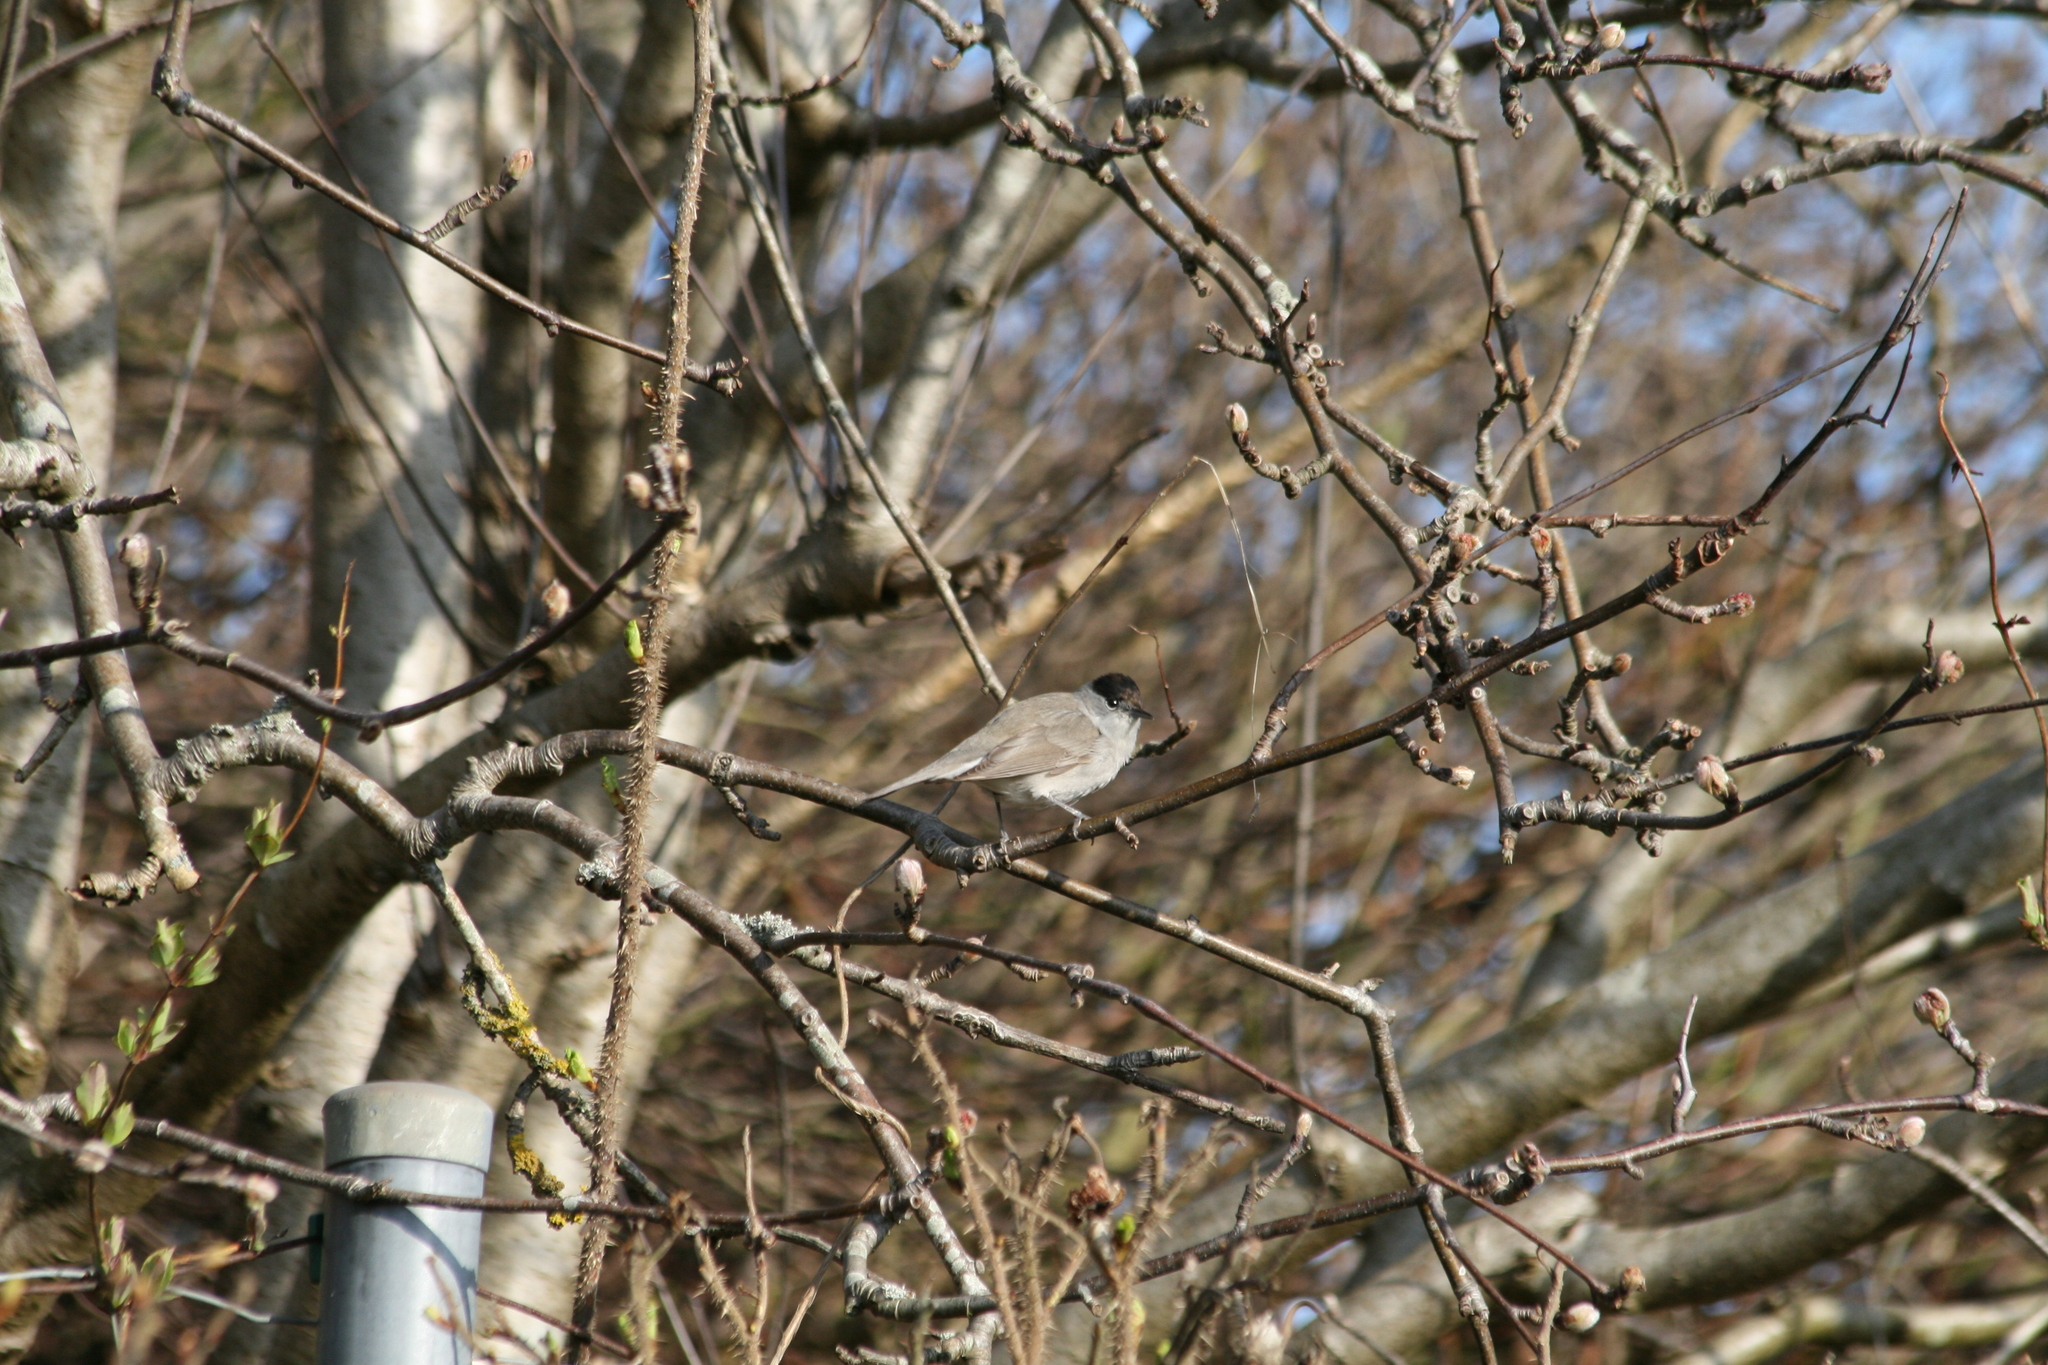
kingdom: Animalia
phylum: Chordata
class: Aves
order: Passeriformes
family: Sylviidae
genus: Sylvia
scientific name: Sylvia atricapilla
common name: Eurasian blackcap
